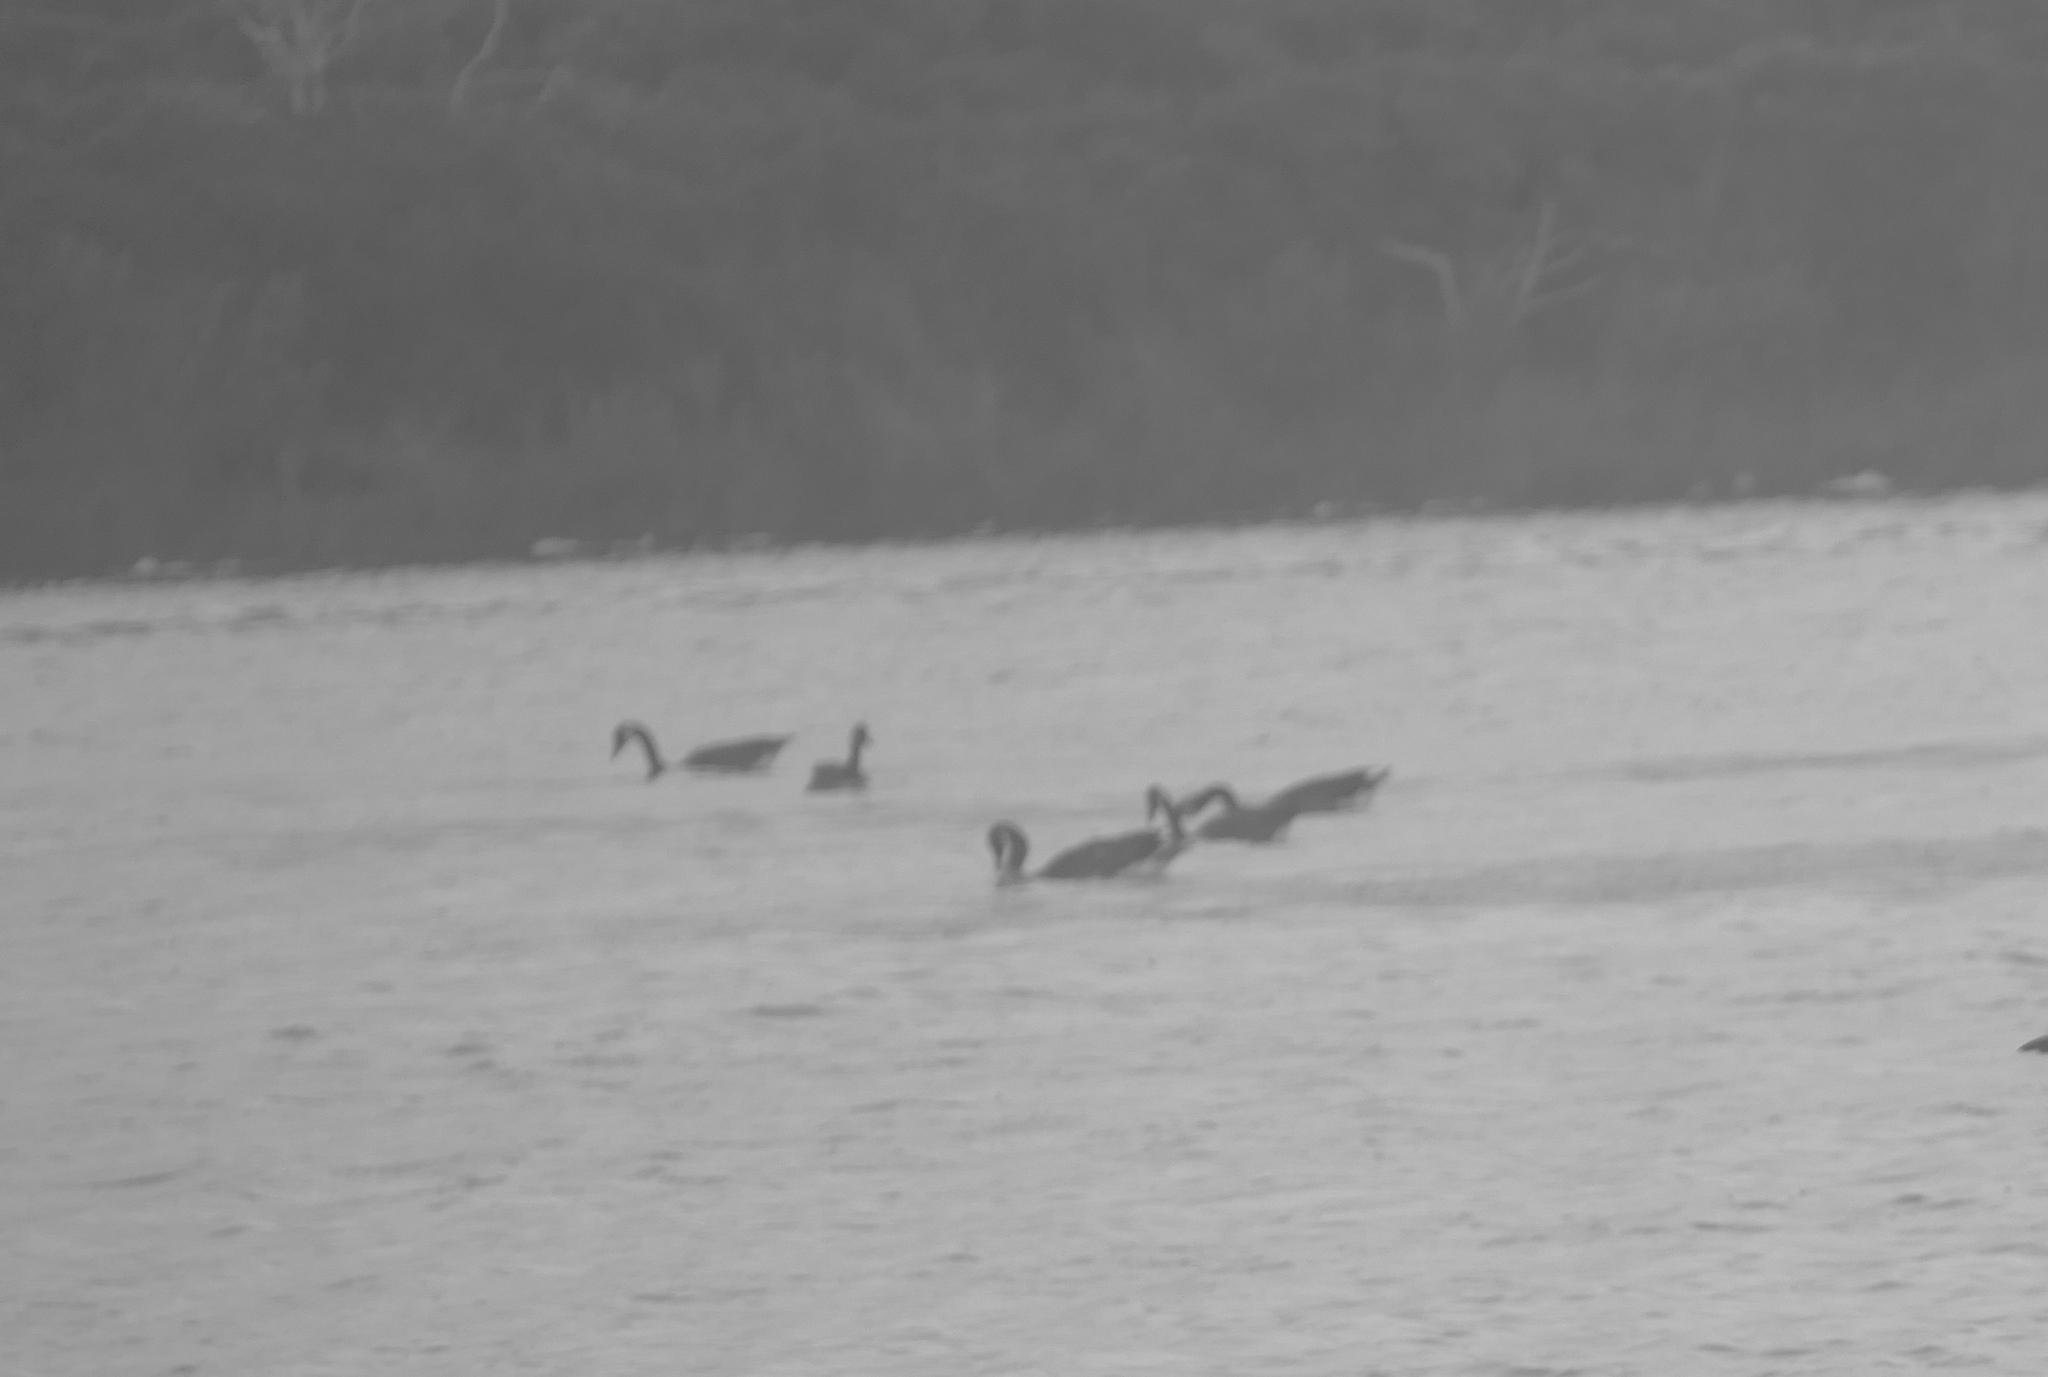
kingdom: Animalia
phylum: Chordata
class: Aves
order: Anseriformes
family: Anatidae
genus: Branta
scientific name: Branta canadensis
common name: Canada goose
